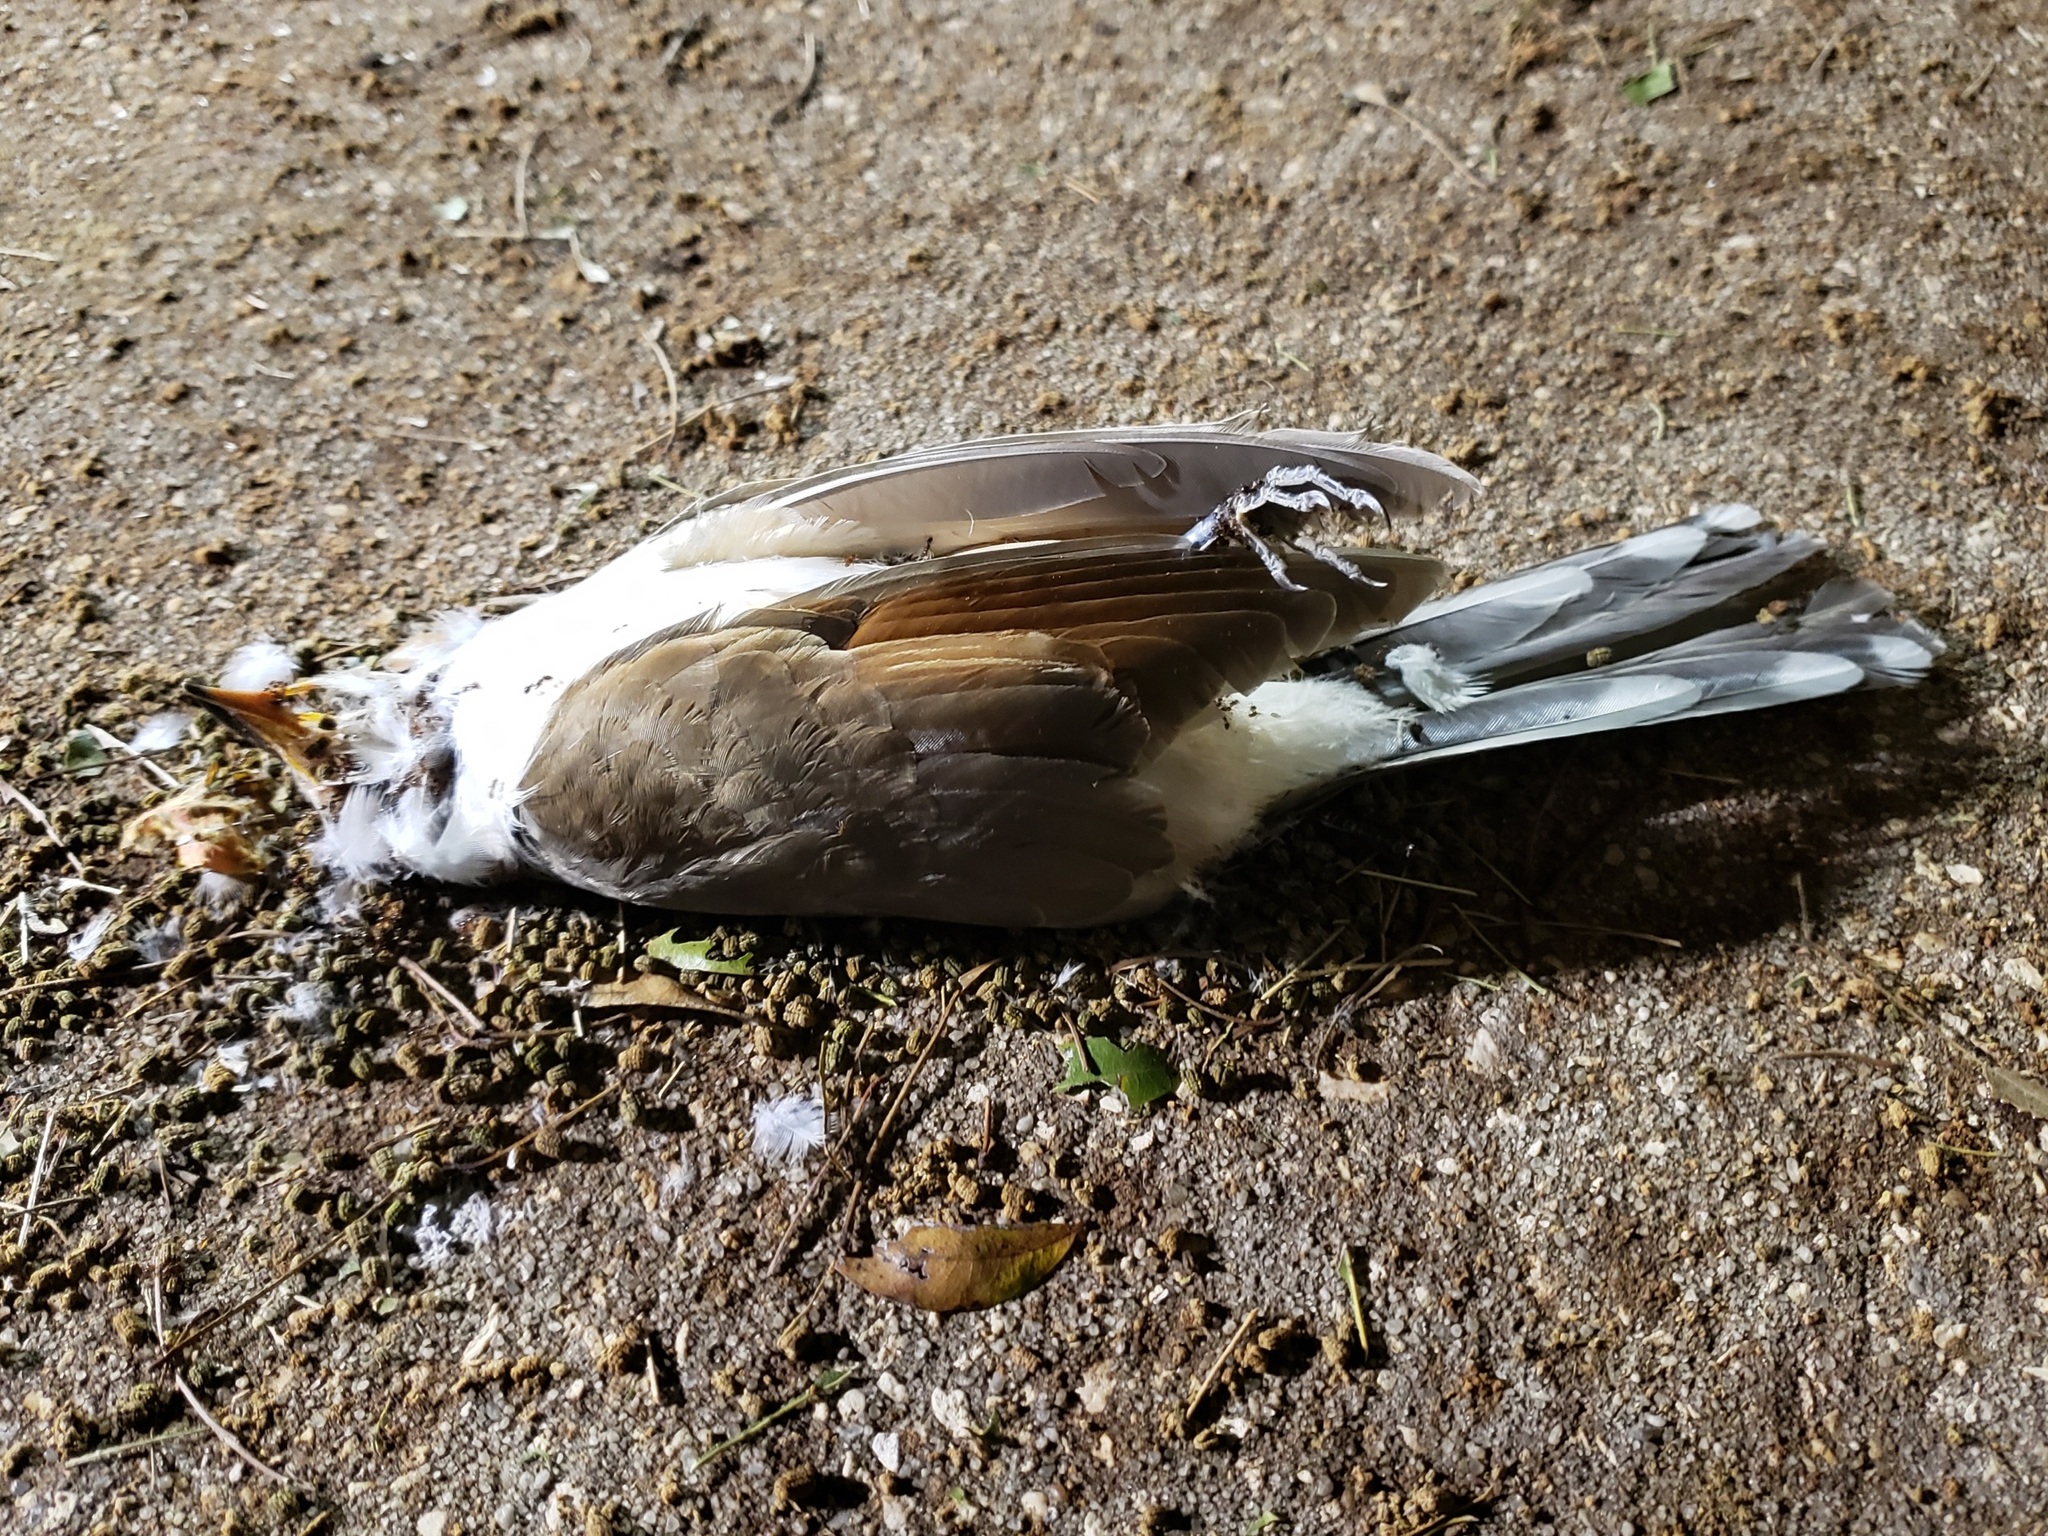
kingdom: Animalia
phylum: Chordata
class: Aves
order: Cuculiformes
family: Cuculidae
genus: Coccyzus
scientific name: Coccyzus americanus
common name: Yellow-billed cuckoo
